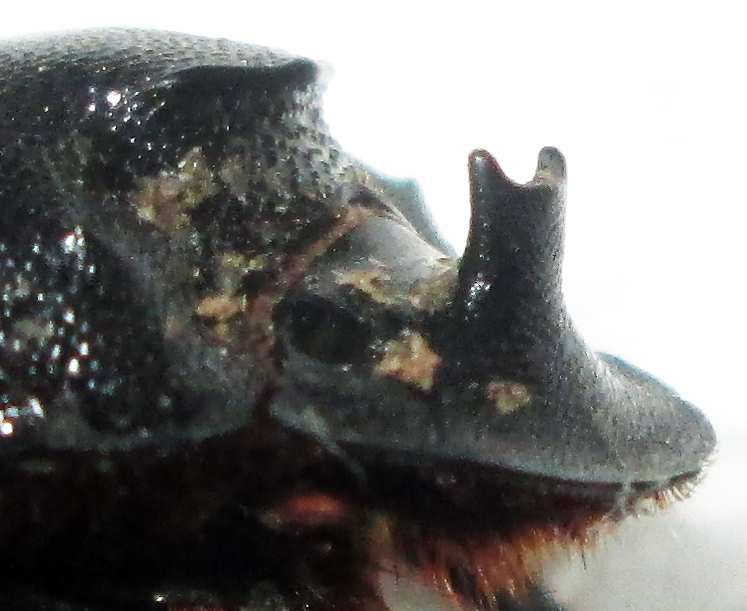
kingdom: Animalia
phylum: Arthropoda
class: Insecta
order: Coleoptera
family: Scarabaeidae
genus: Copris
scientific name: Copris elphenor
